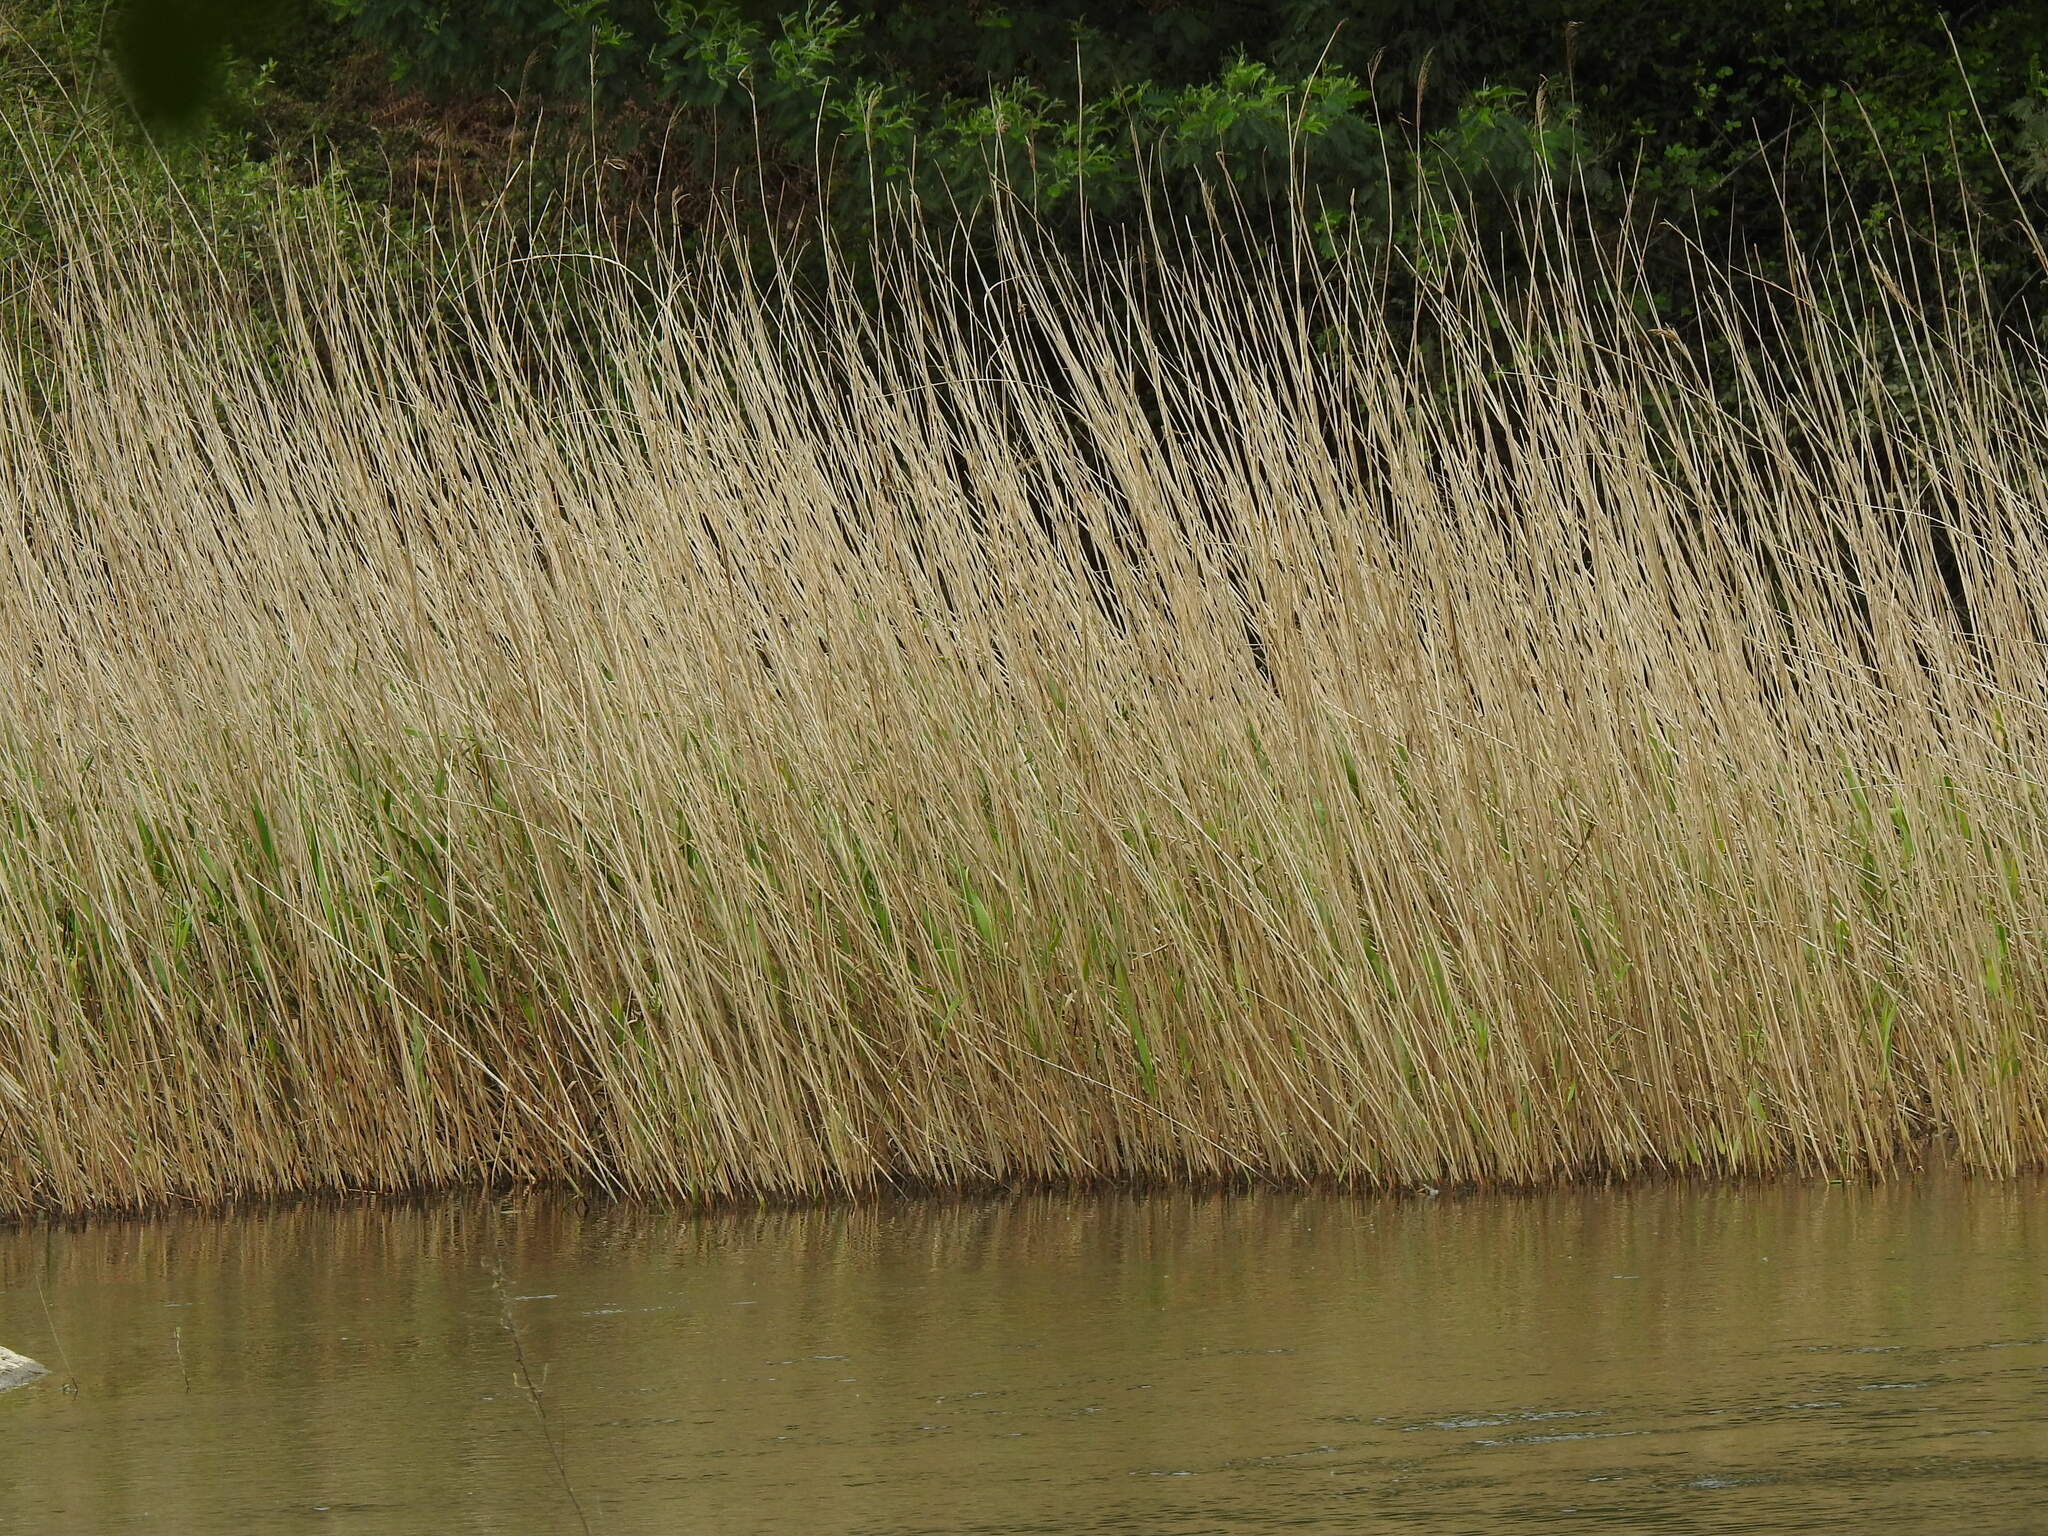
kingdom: Plantae
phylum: Tracheophyta
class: Liliopsida
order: Poales
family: Poaceae
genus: Phragmites
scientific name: Phragmites australis
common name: Common reed
